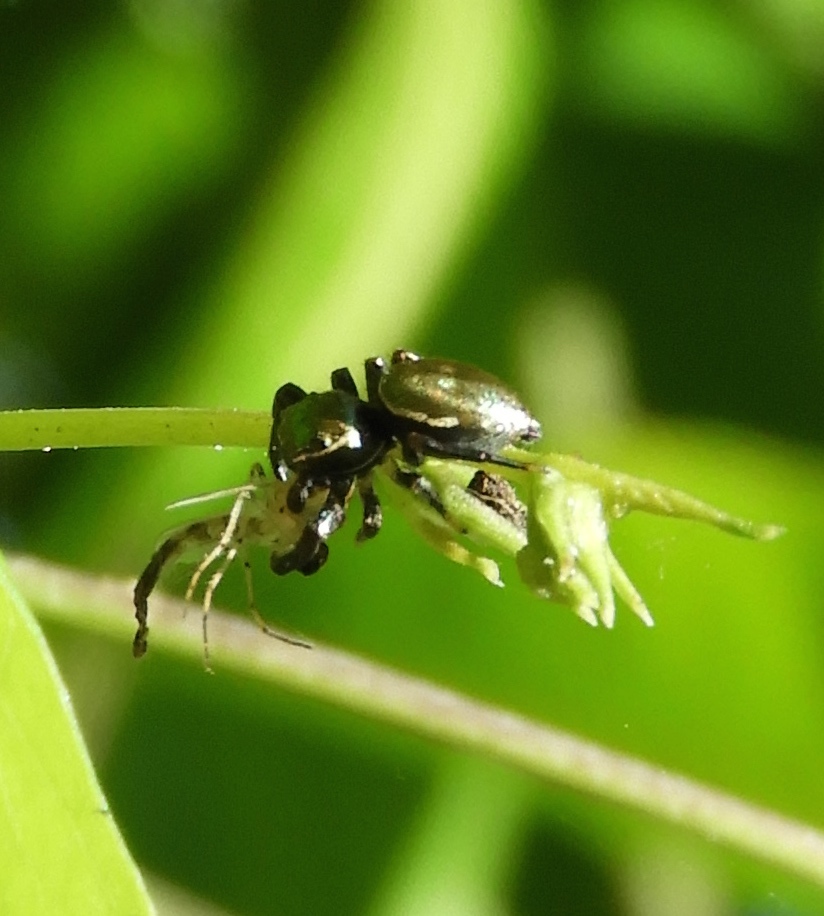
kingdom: Animalia
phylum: Arthropoda
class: Arachnida
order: Araneae
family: Salticidae
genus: Messua
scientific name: Messua
